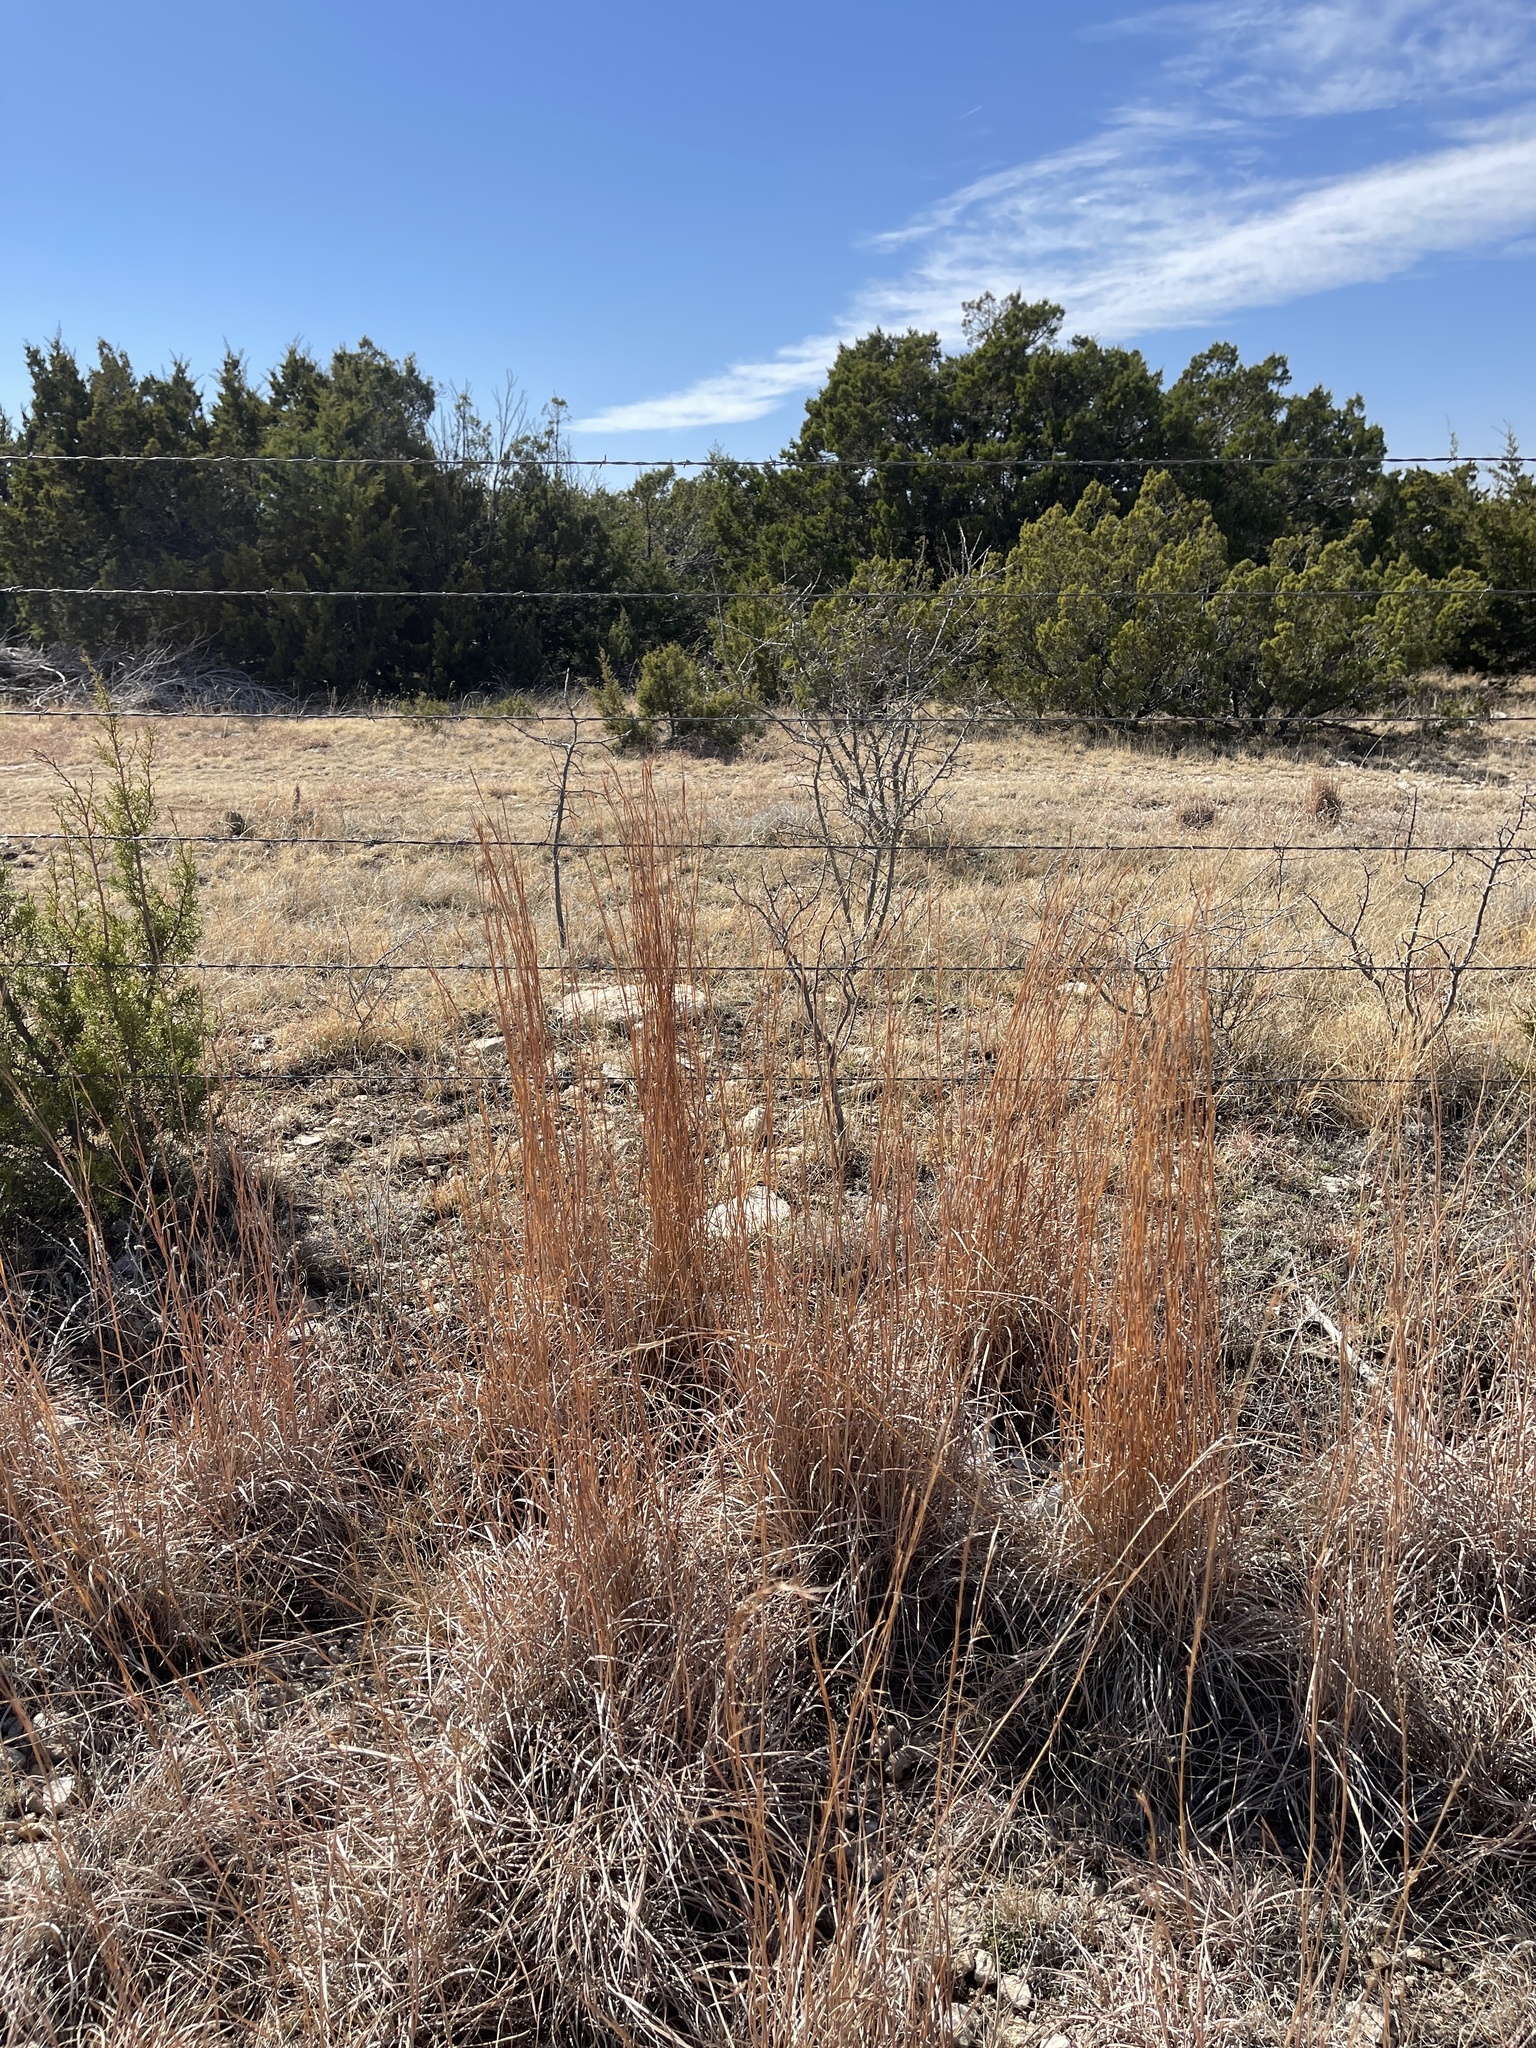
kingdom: Plantae
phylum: Tracheophyta
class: Liliopsida
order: Poales
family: Poaceae
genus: Schizachyrium
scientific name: Schizachyrium scoparium
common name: Little bluestem
